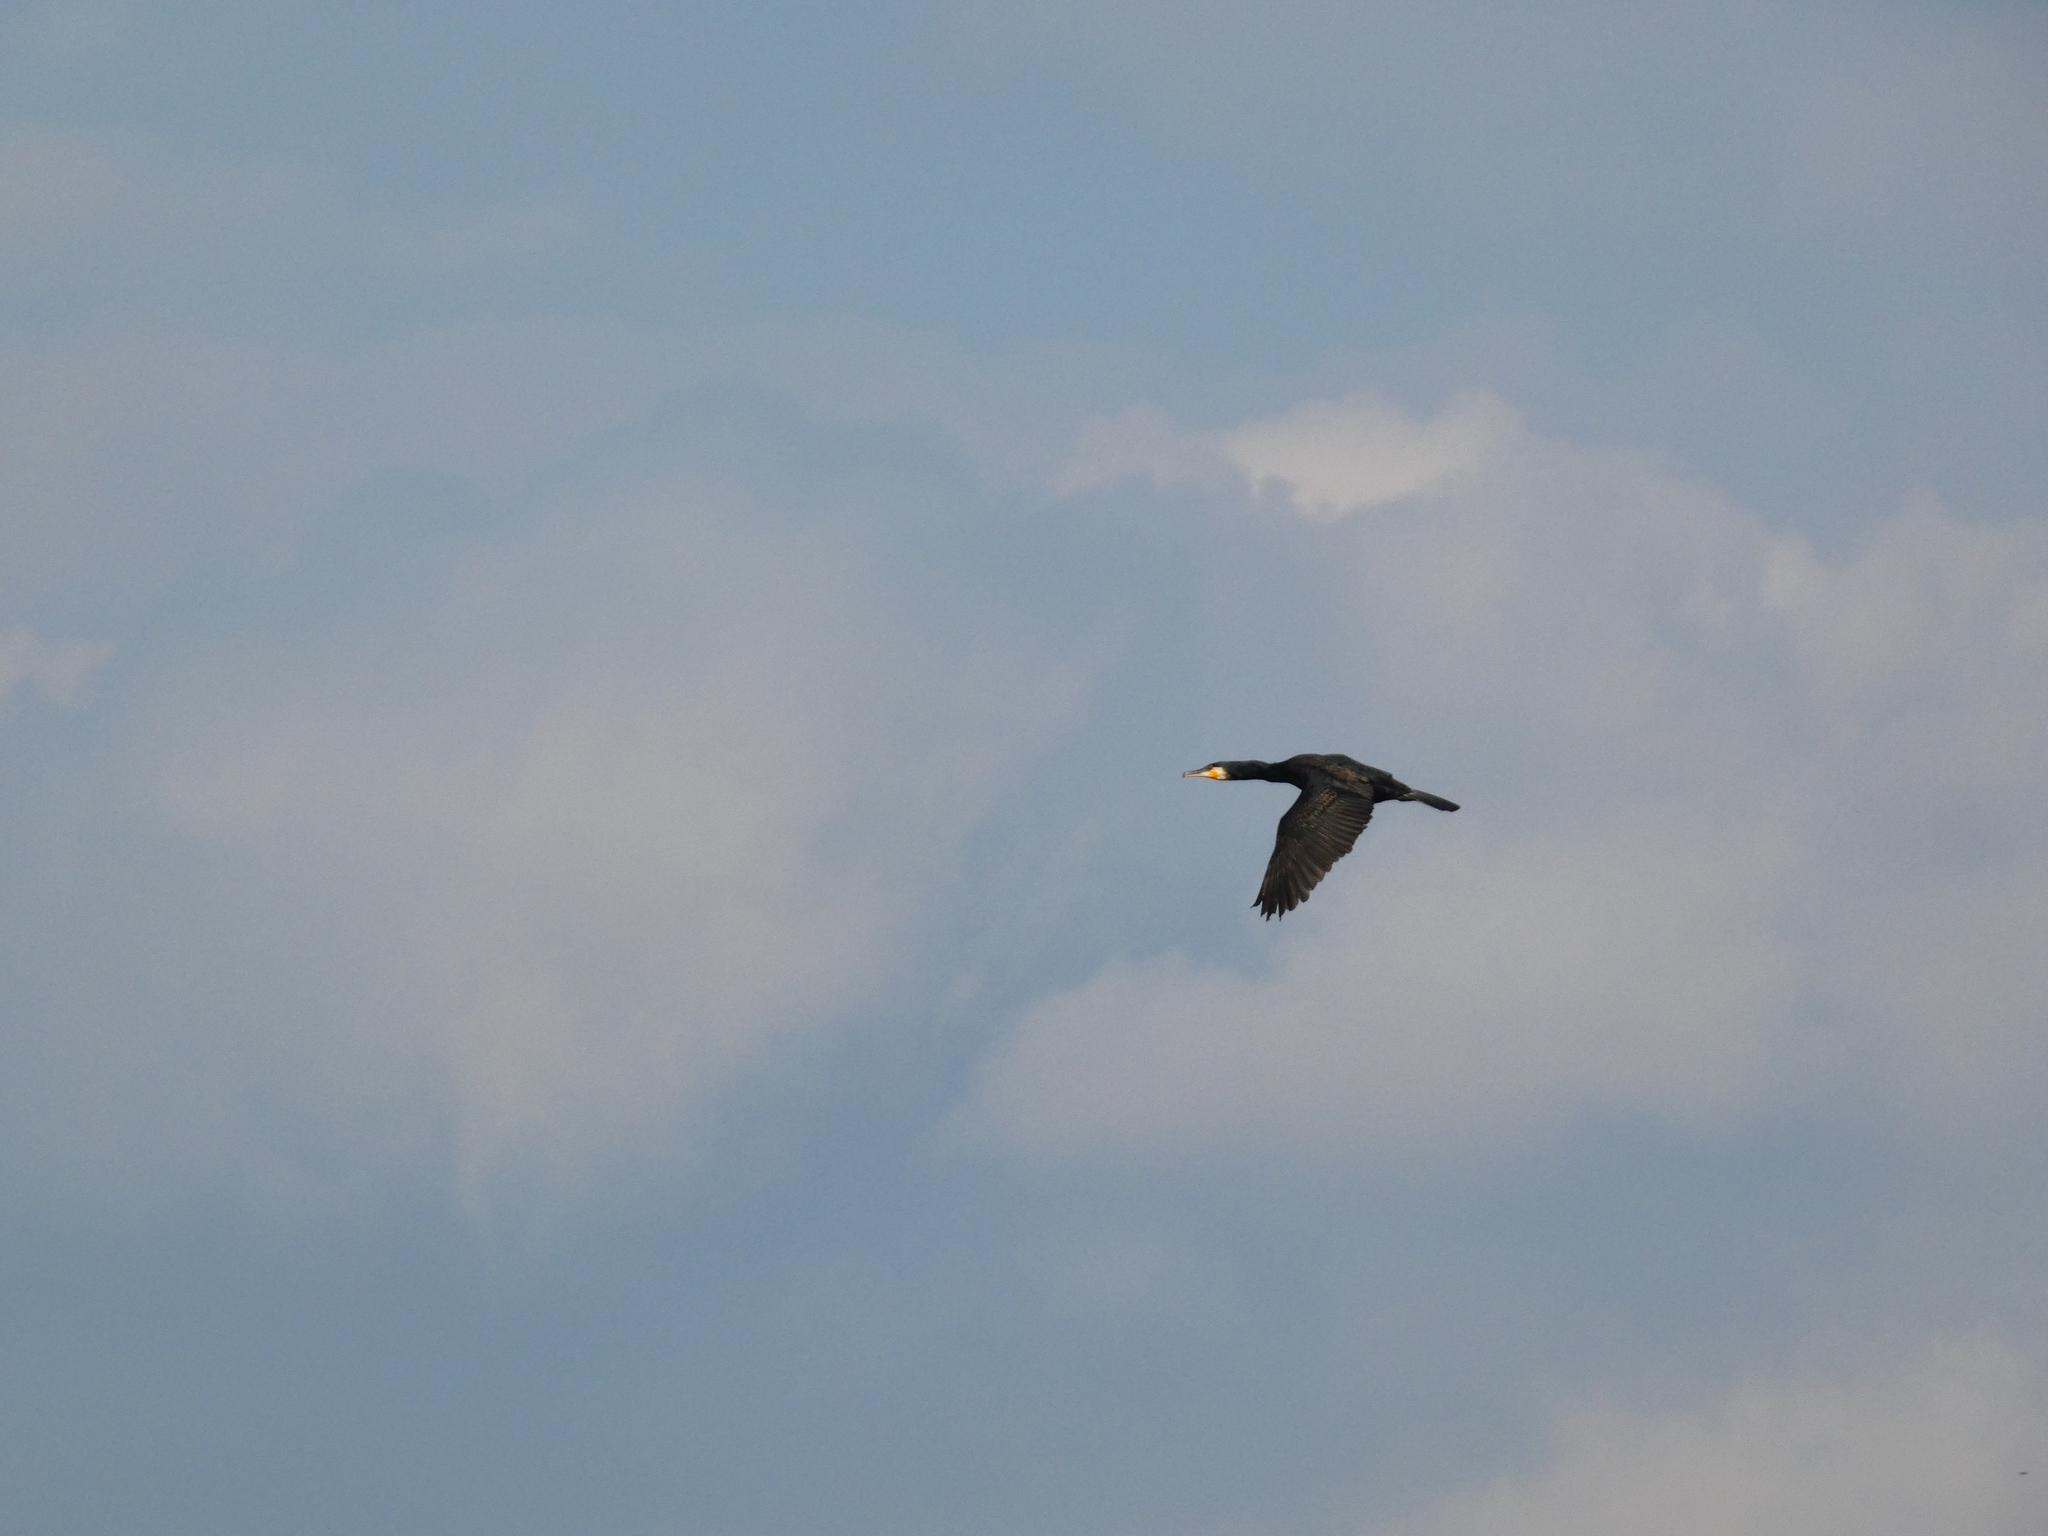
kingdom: Animalia
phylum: Chordata
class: Aves
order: Suliformes
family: Phalacrocoracidae
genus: Phalacrocorax
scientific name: Phalacrocorax carbo
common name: Great cormorant
